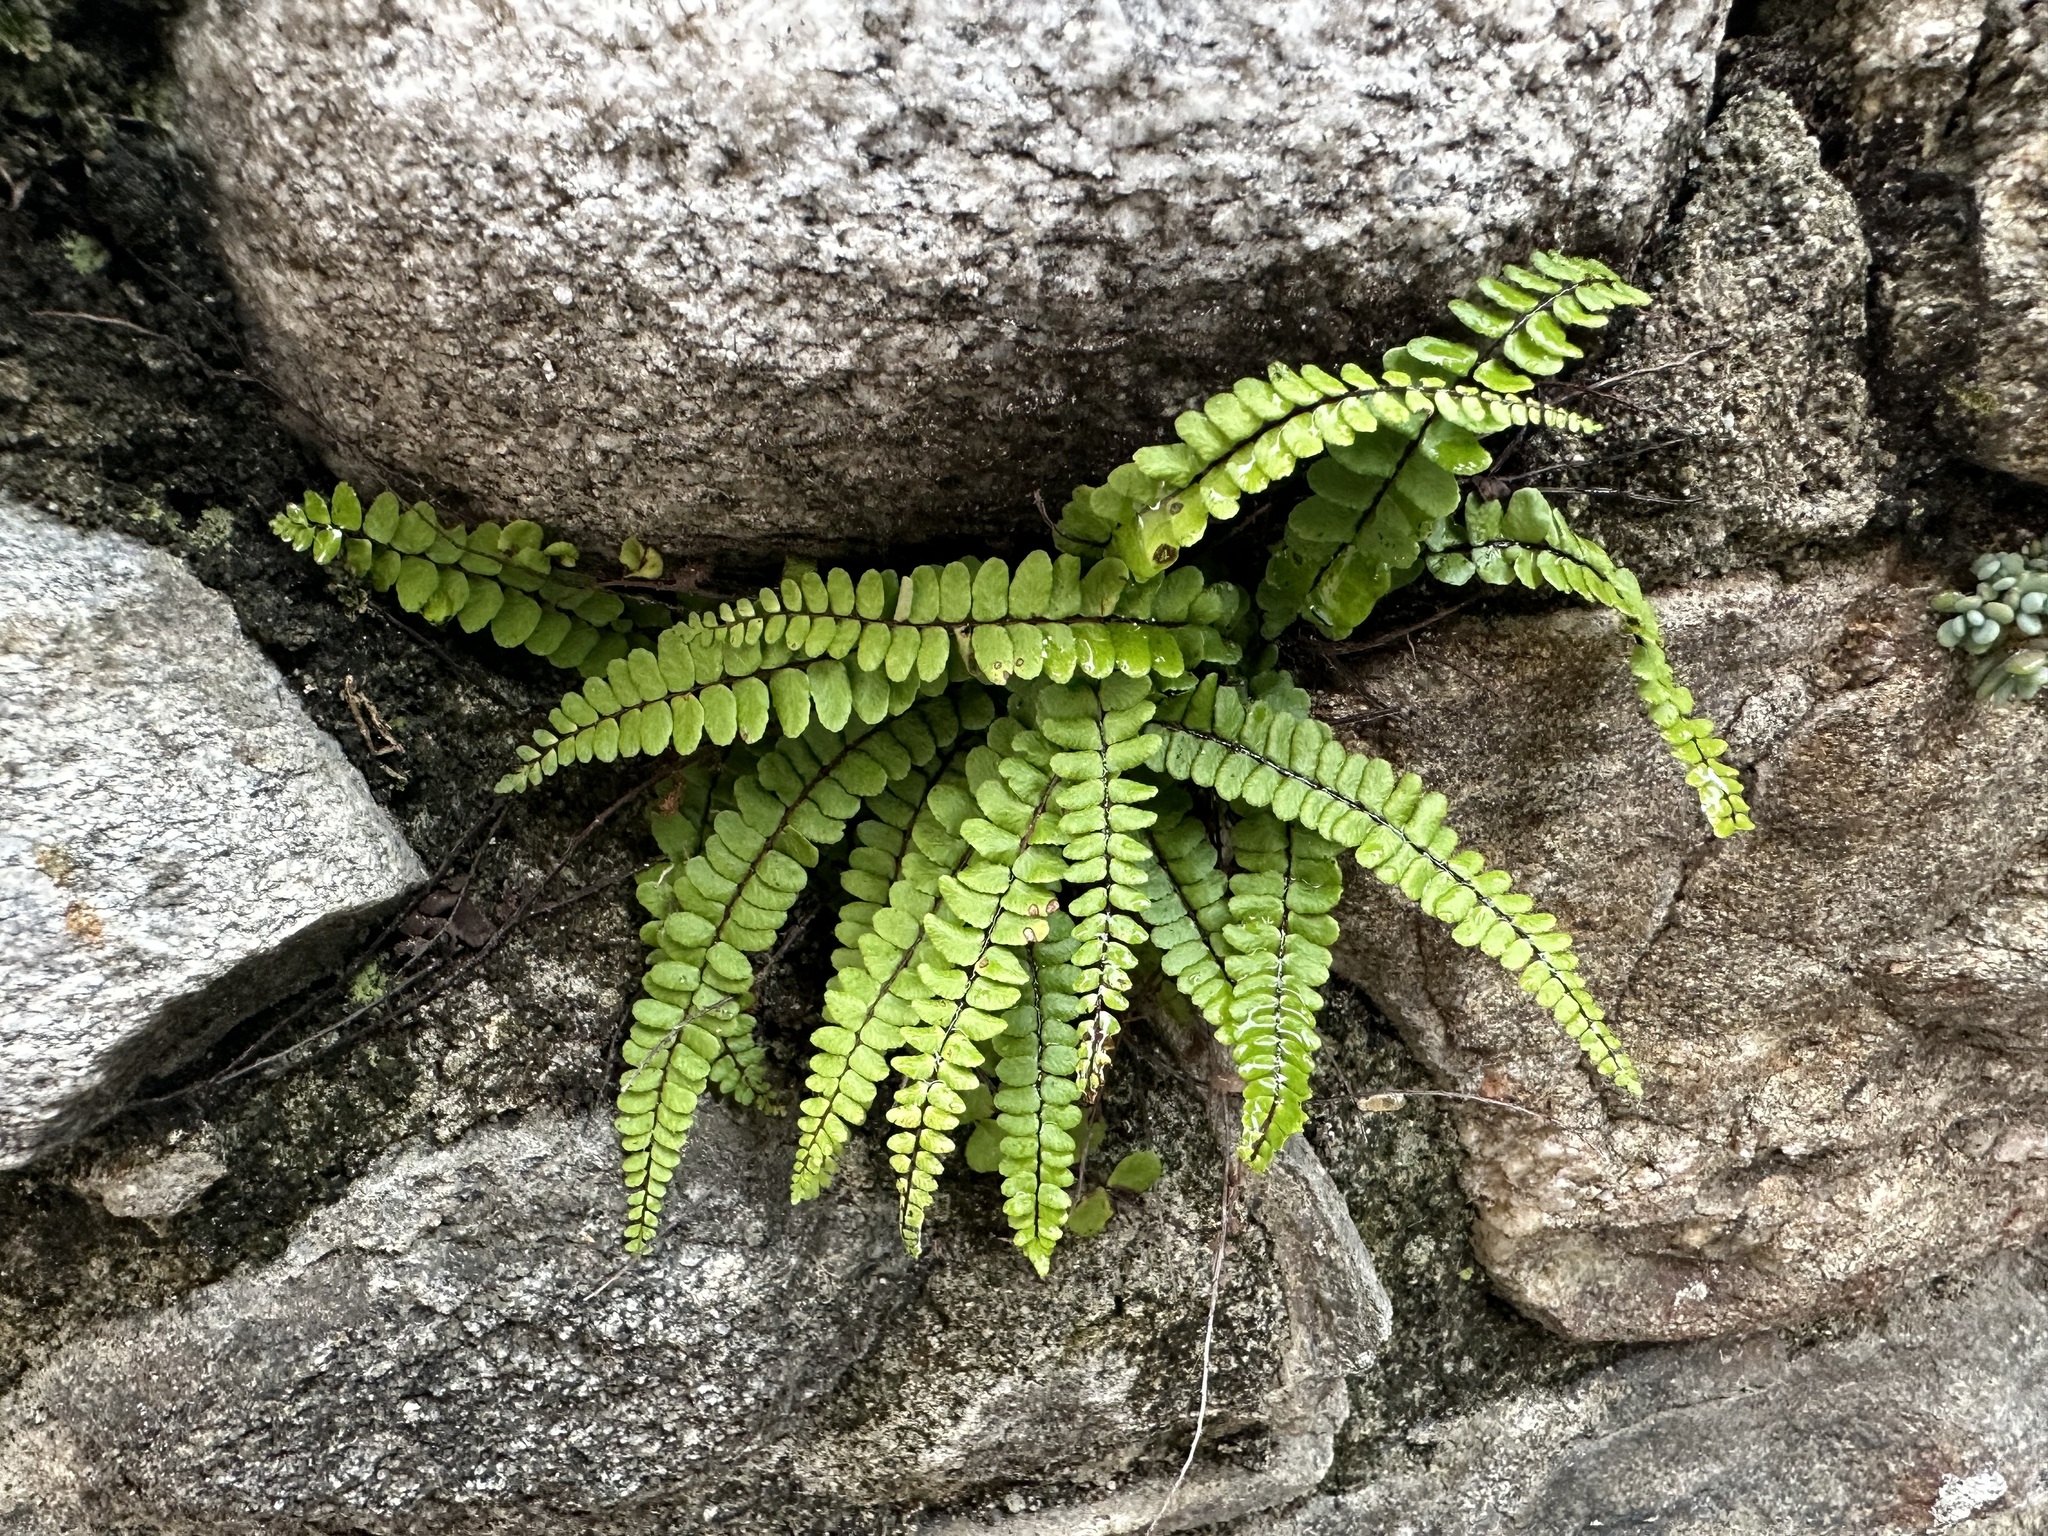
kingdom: Plantae
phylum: Tracheophyta
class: Polypodiopsida
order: Polypodiales
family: Aspleniaceae
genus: Asplenium
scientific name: Asplenium trichomanes
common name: Maidenhair spleenwort
